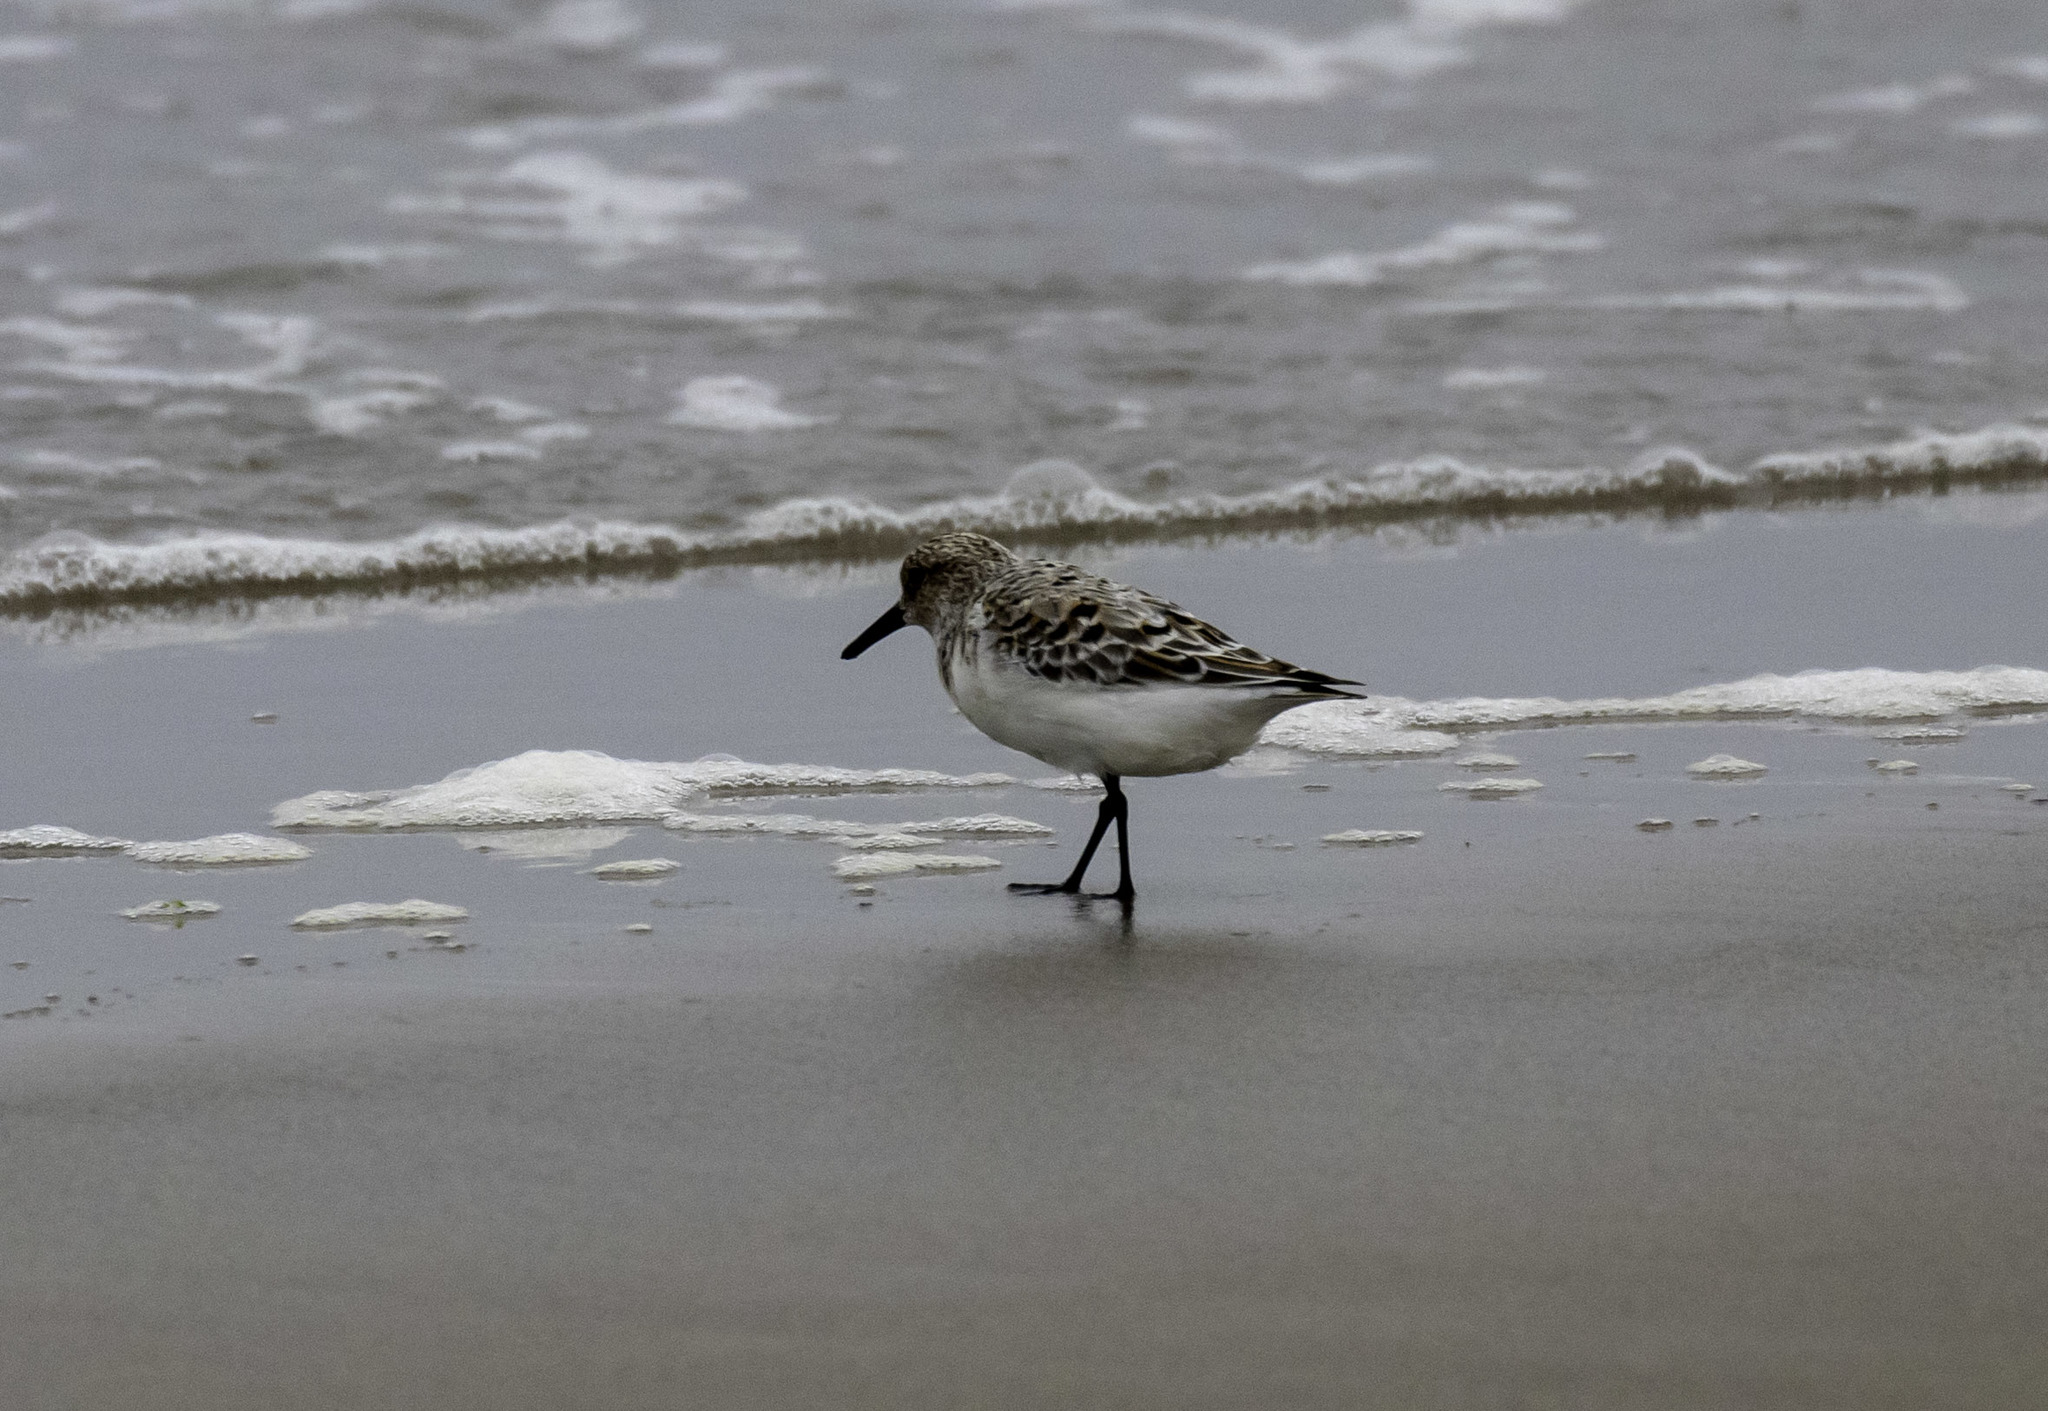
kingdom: Animalia
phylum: Chordata
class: Aves
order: Charadriiformes
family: Scolopacidae
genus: Calidris
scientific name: Calidris alba
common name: Sanderling
